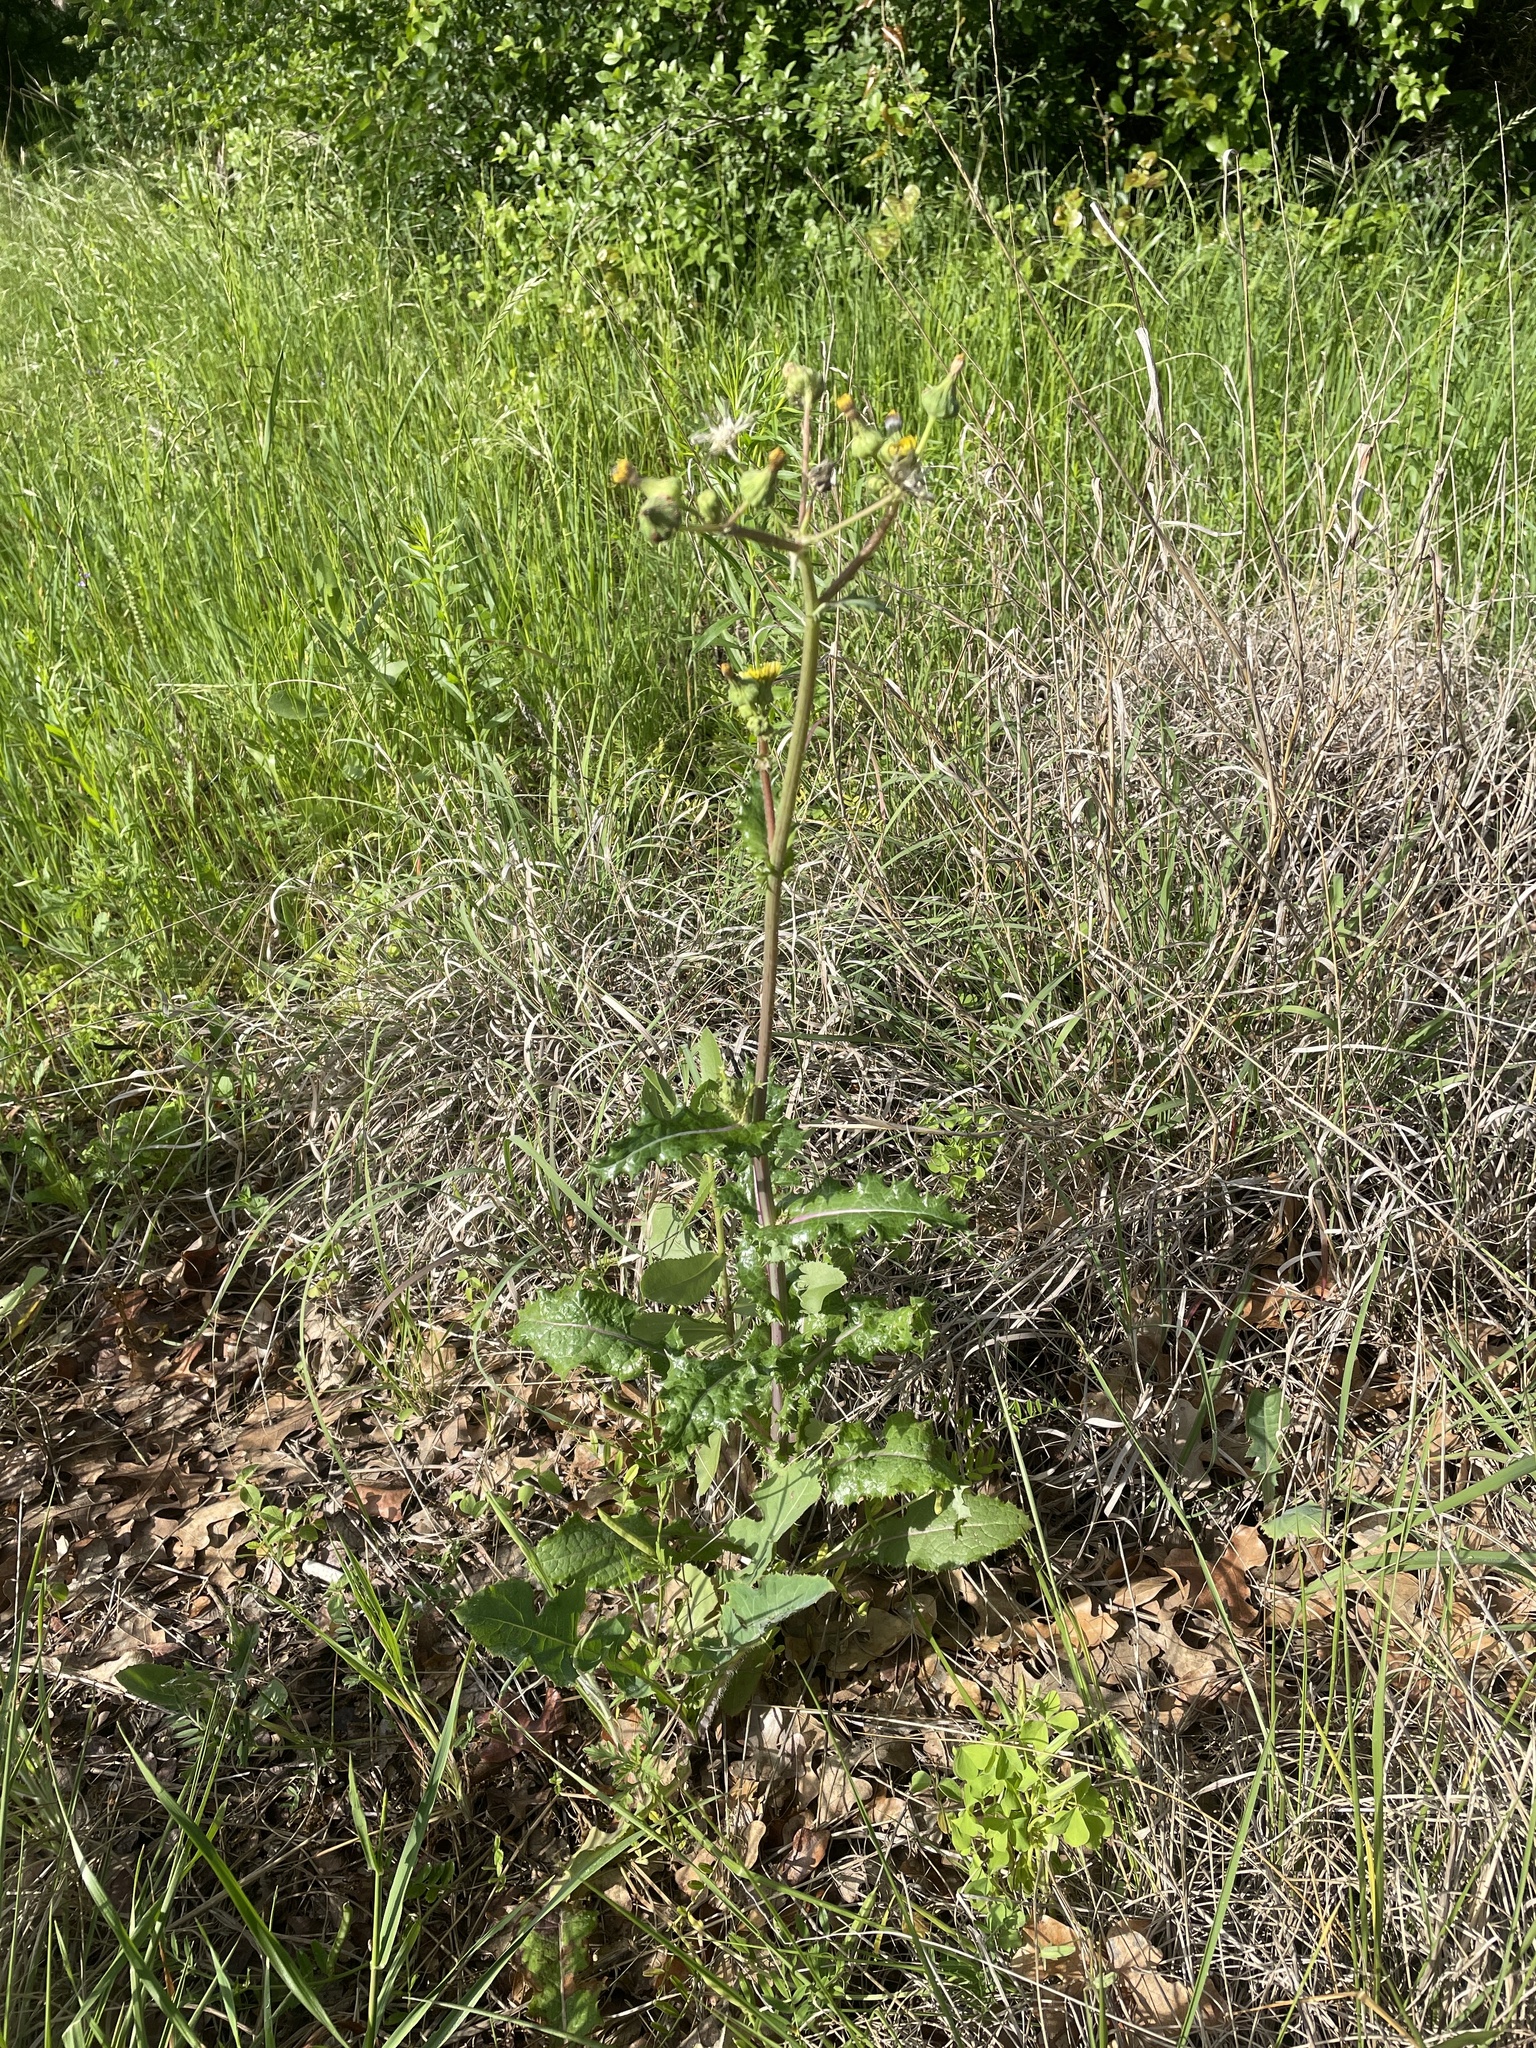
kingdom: Plantae
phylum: Tracheophyta
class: Magnoliopsida
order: Asterales
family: Asteraceae
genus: Sonchus
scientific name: Sonchus asper
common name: Prickly sow-thistle
